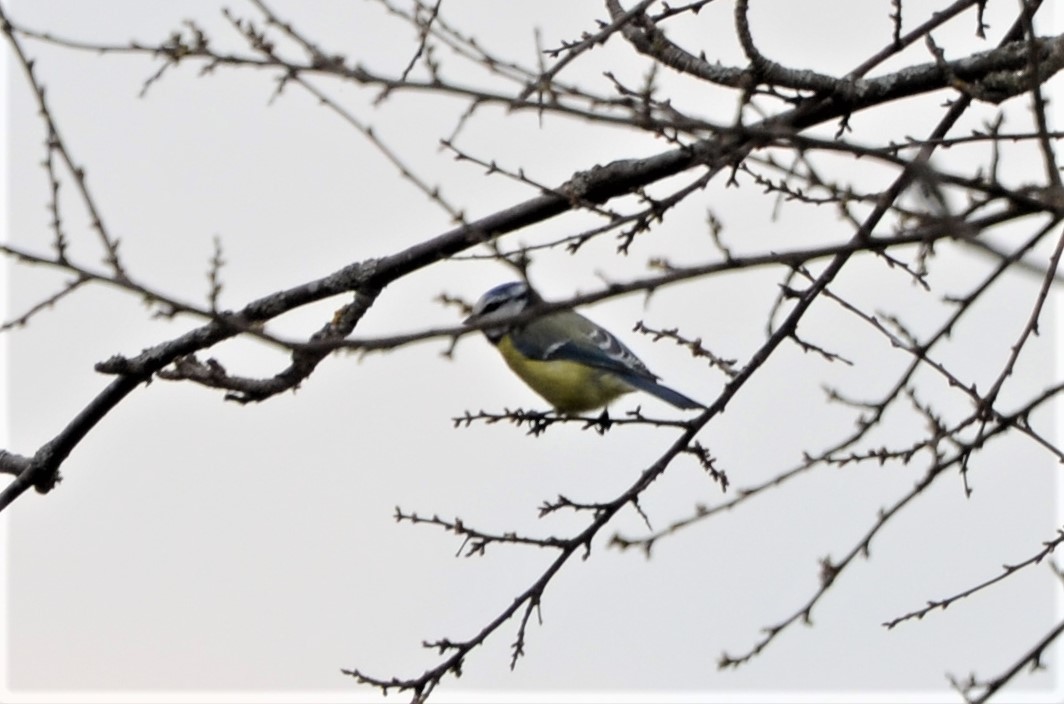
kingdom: Animalia
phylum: Chordata
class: Aves
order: Passeriformes
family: Paridae
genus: Cyanistes
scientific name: Cyanistes caeruleus
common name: Eurasian blue tit
